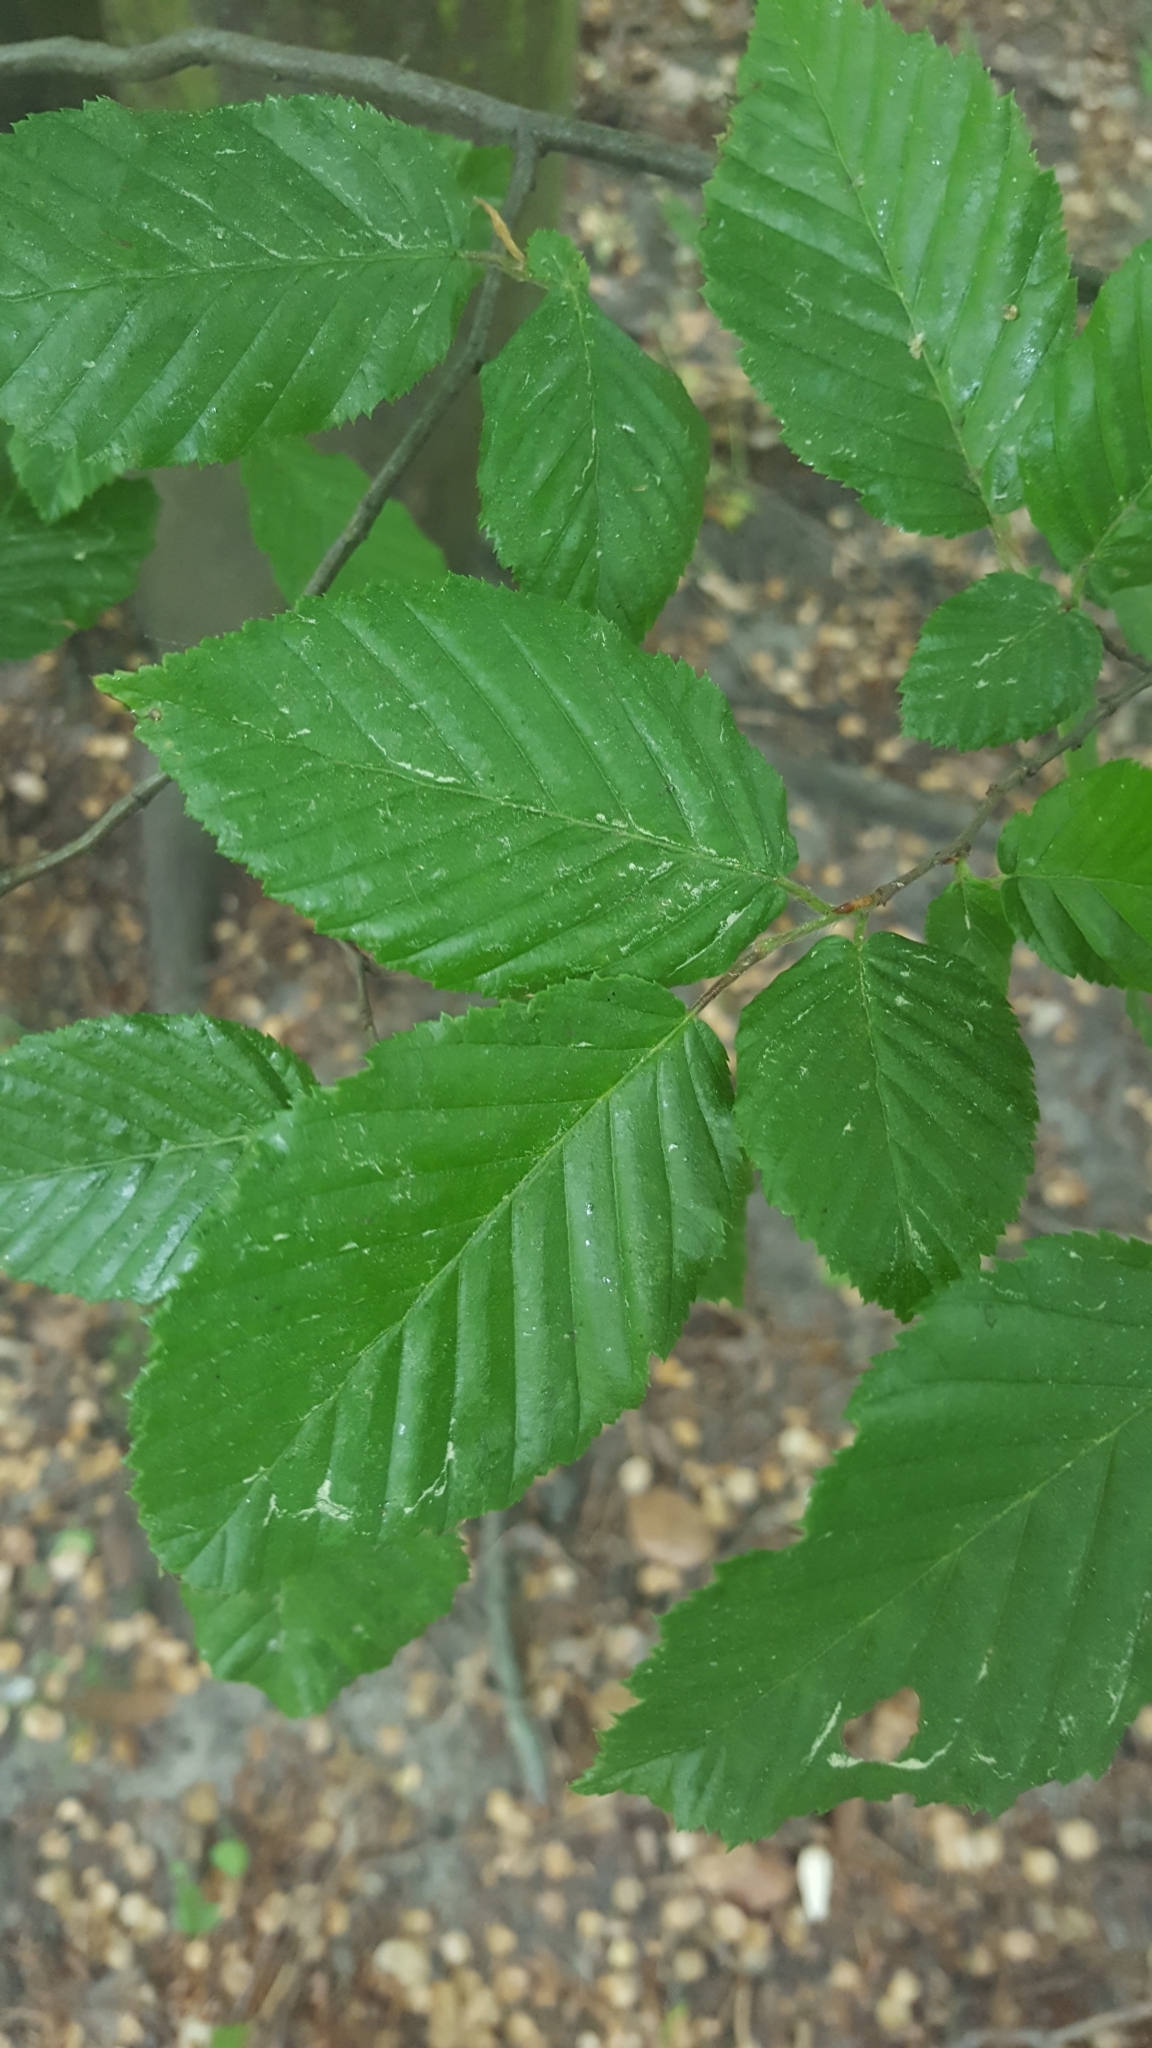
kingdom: Plantae
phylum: Tracheophyta
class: Magnoliopsida
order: Fagales
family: Betulaceae
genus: Carpinus
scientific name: Carpinus betulus
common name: Hornbeam
